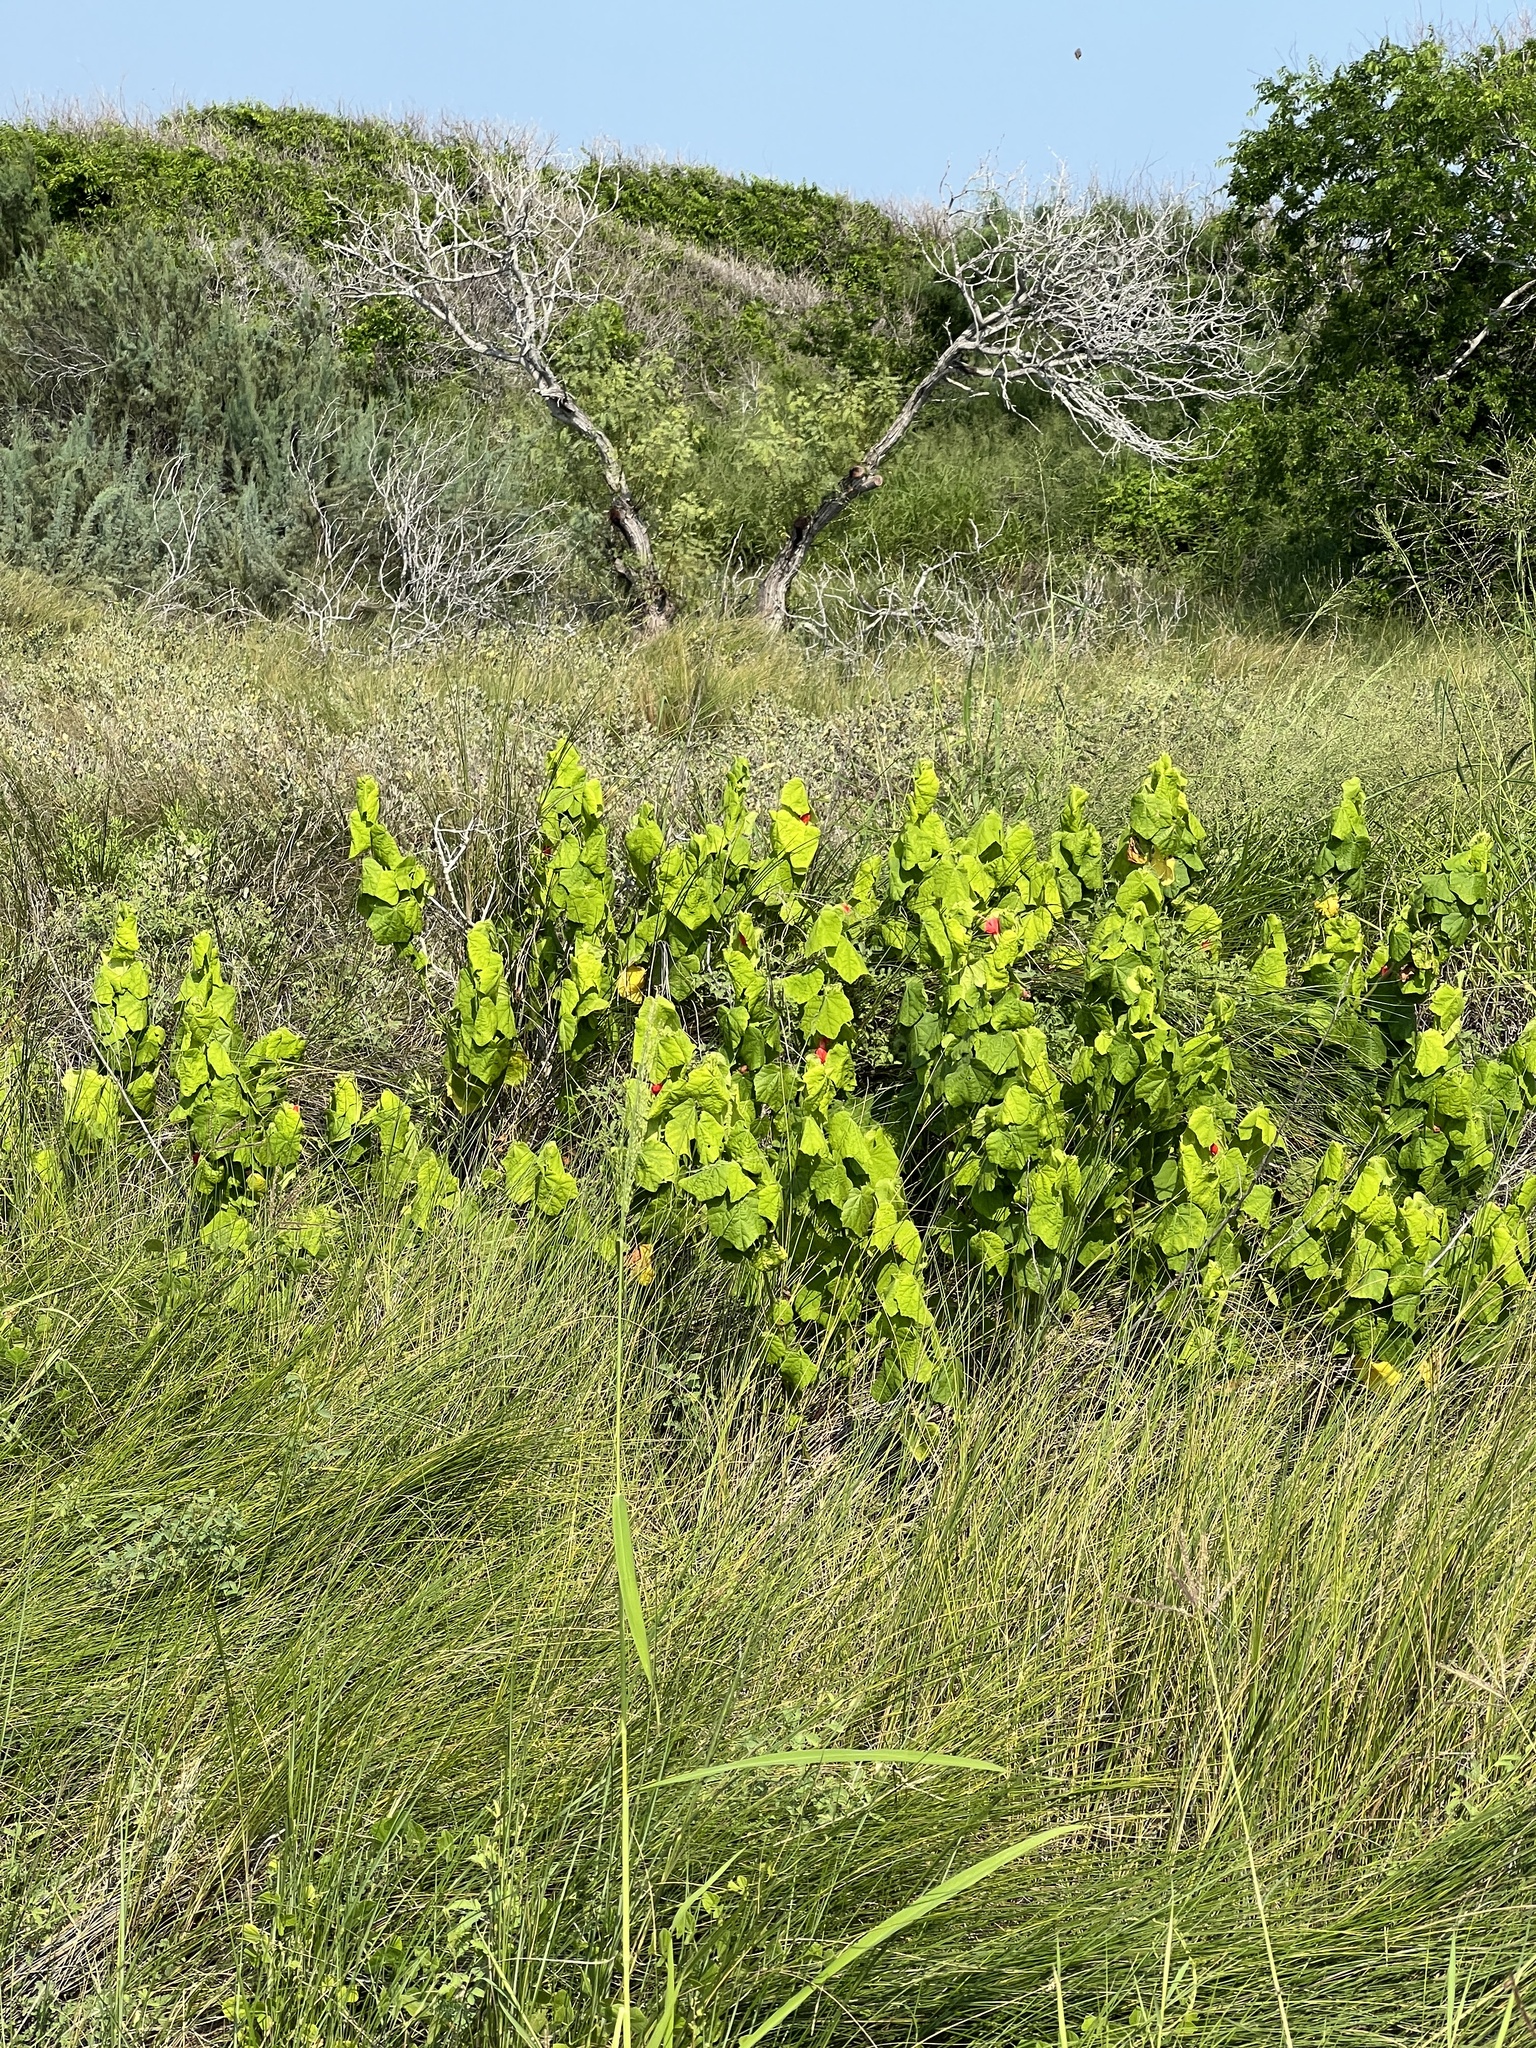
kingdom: Plantae
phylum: Tracheophyta
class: Magnoliopsida
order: Malvales
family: Malvaceae
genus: Malvaviscus
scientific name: Malvaviscus arboreus
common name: Wax mallow
